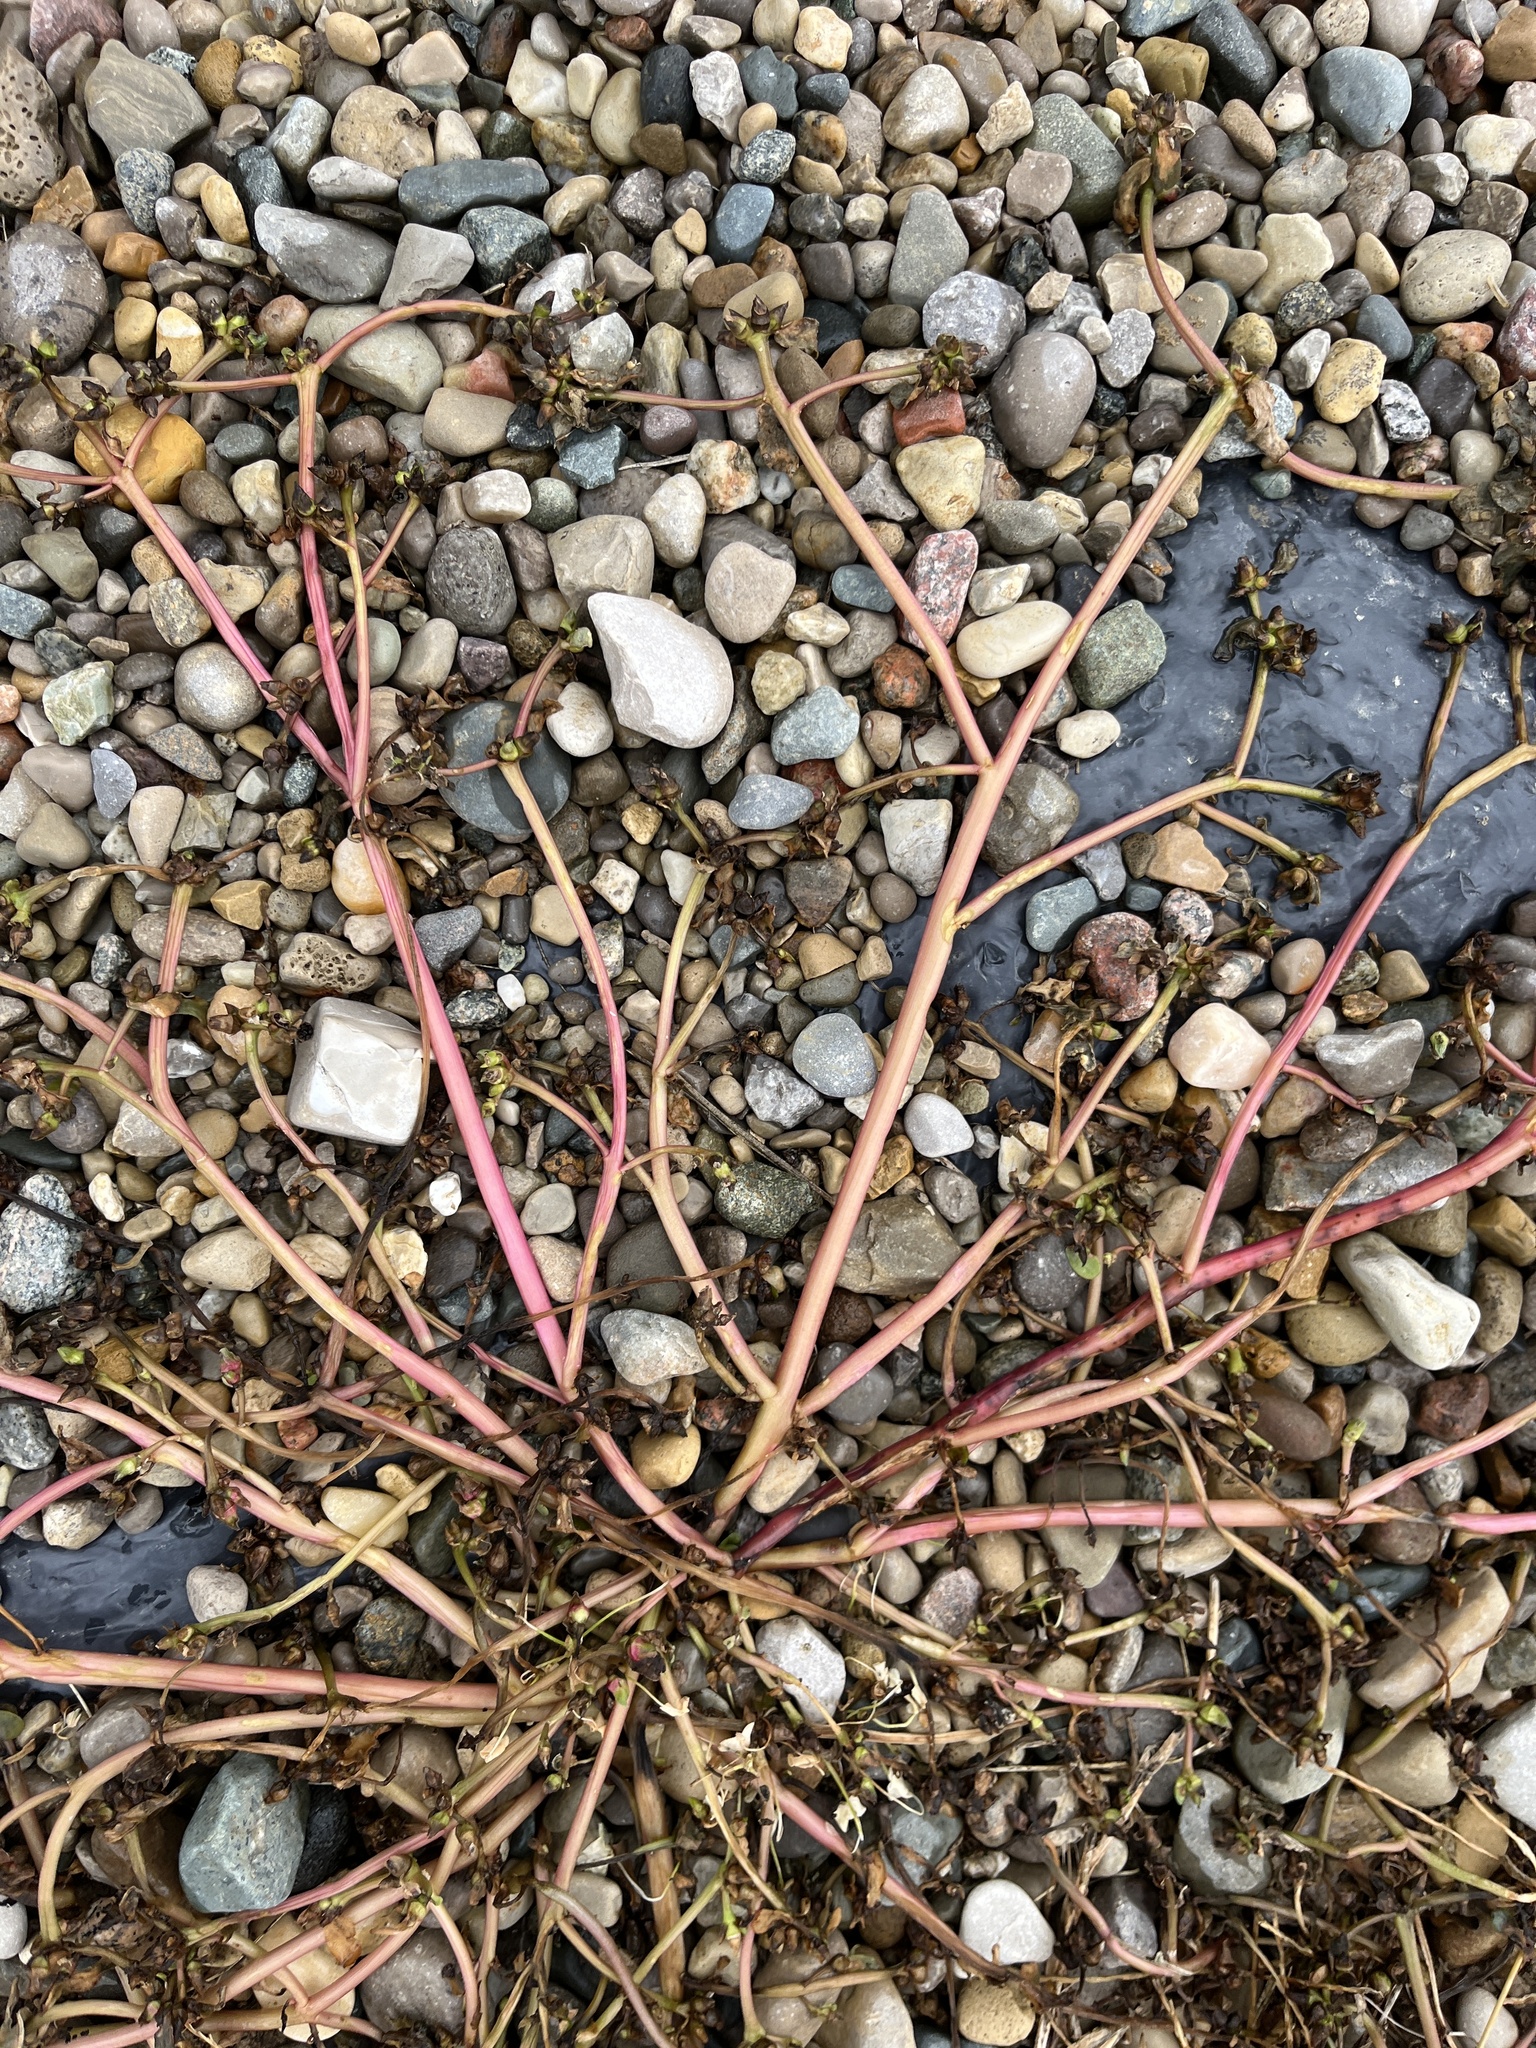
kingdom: Plantae
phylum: Tracheophyta
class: Magnoliopsida
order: Caryophyllales
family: Portulacaceae
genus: Portulaca
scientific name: Portulaca oleracea
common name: Common purslane
